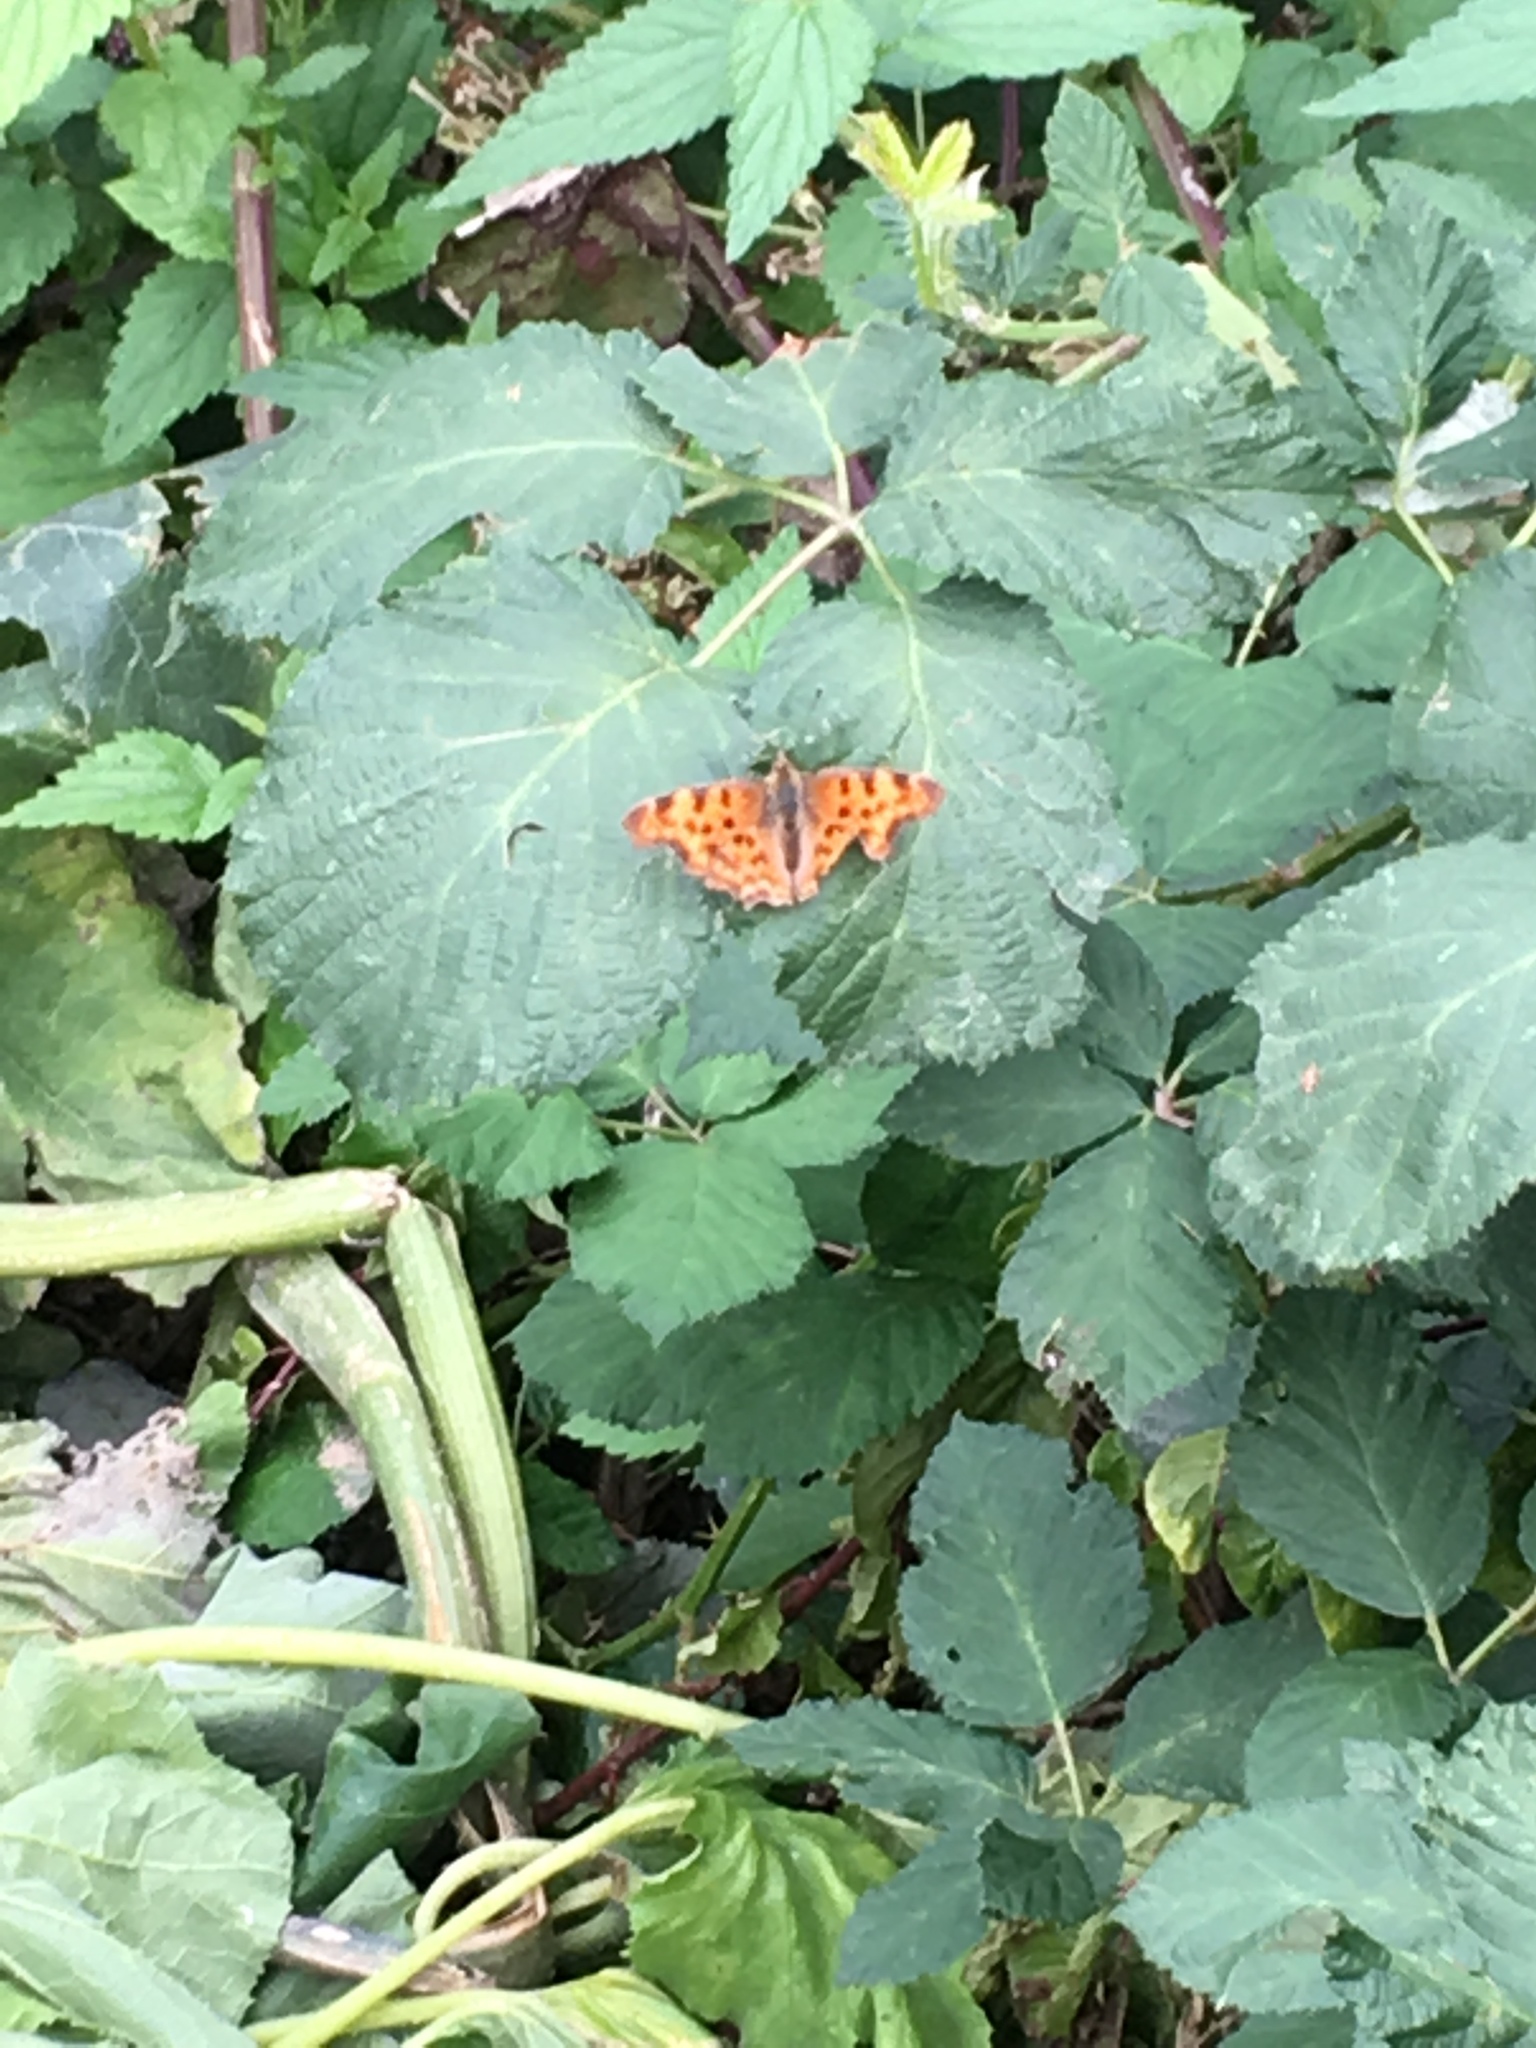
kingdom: Animalia
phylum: Arthropoda
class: Insecta
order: Lepidoptera
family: Nymphalidae
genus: Polygonia
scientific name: Polygonia c-album
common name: Comma
